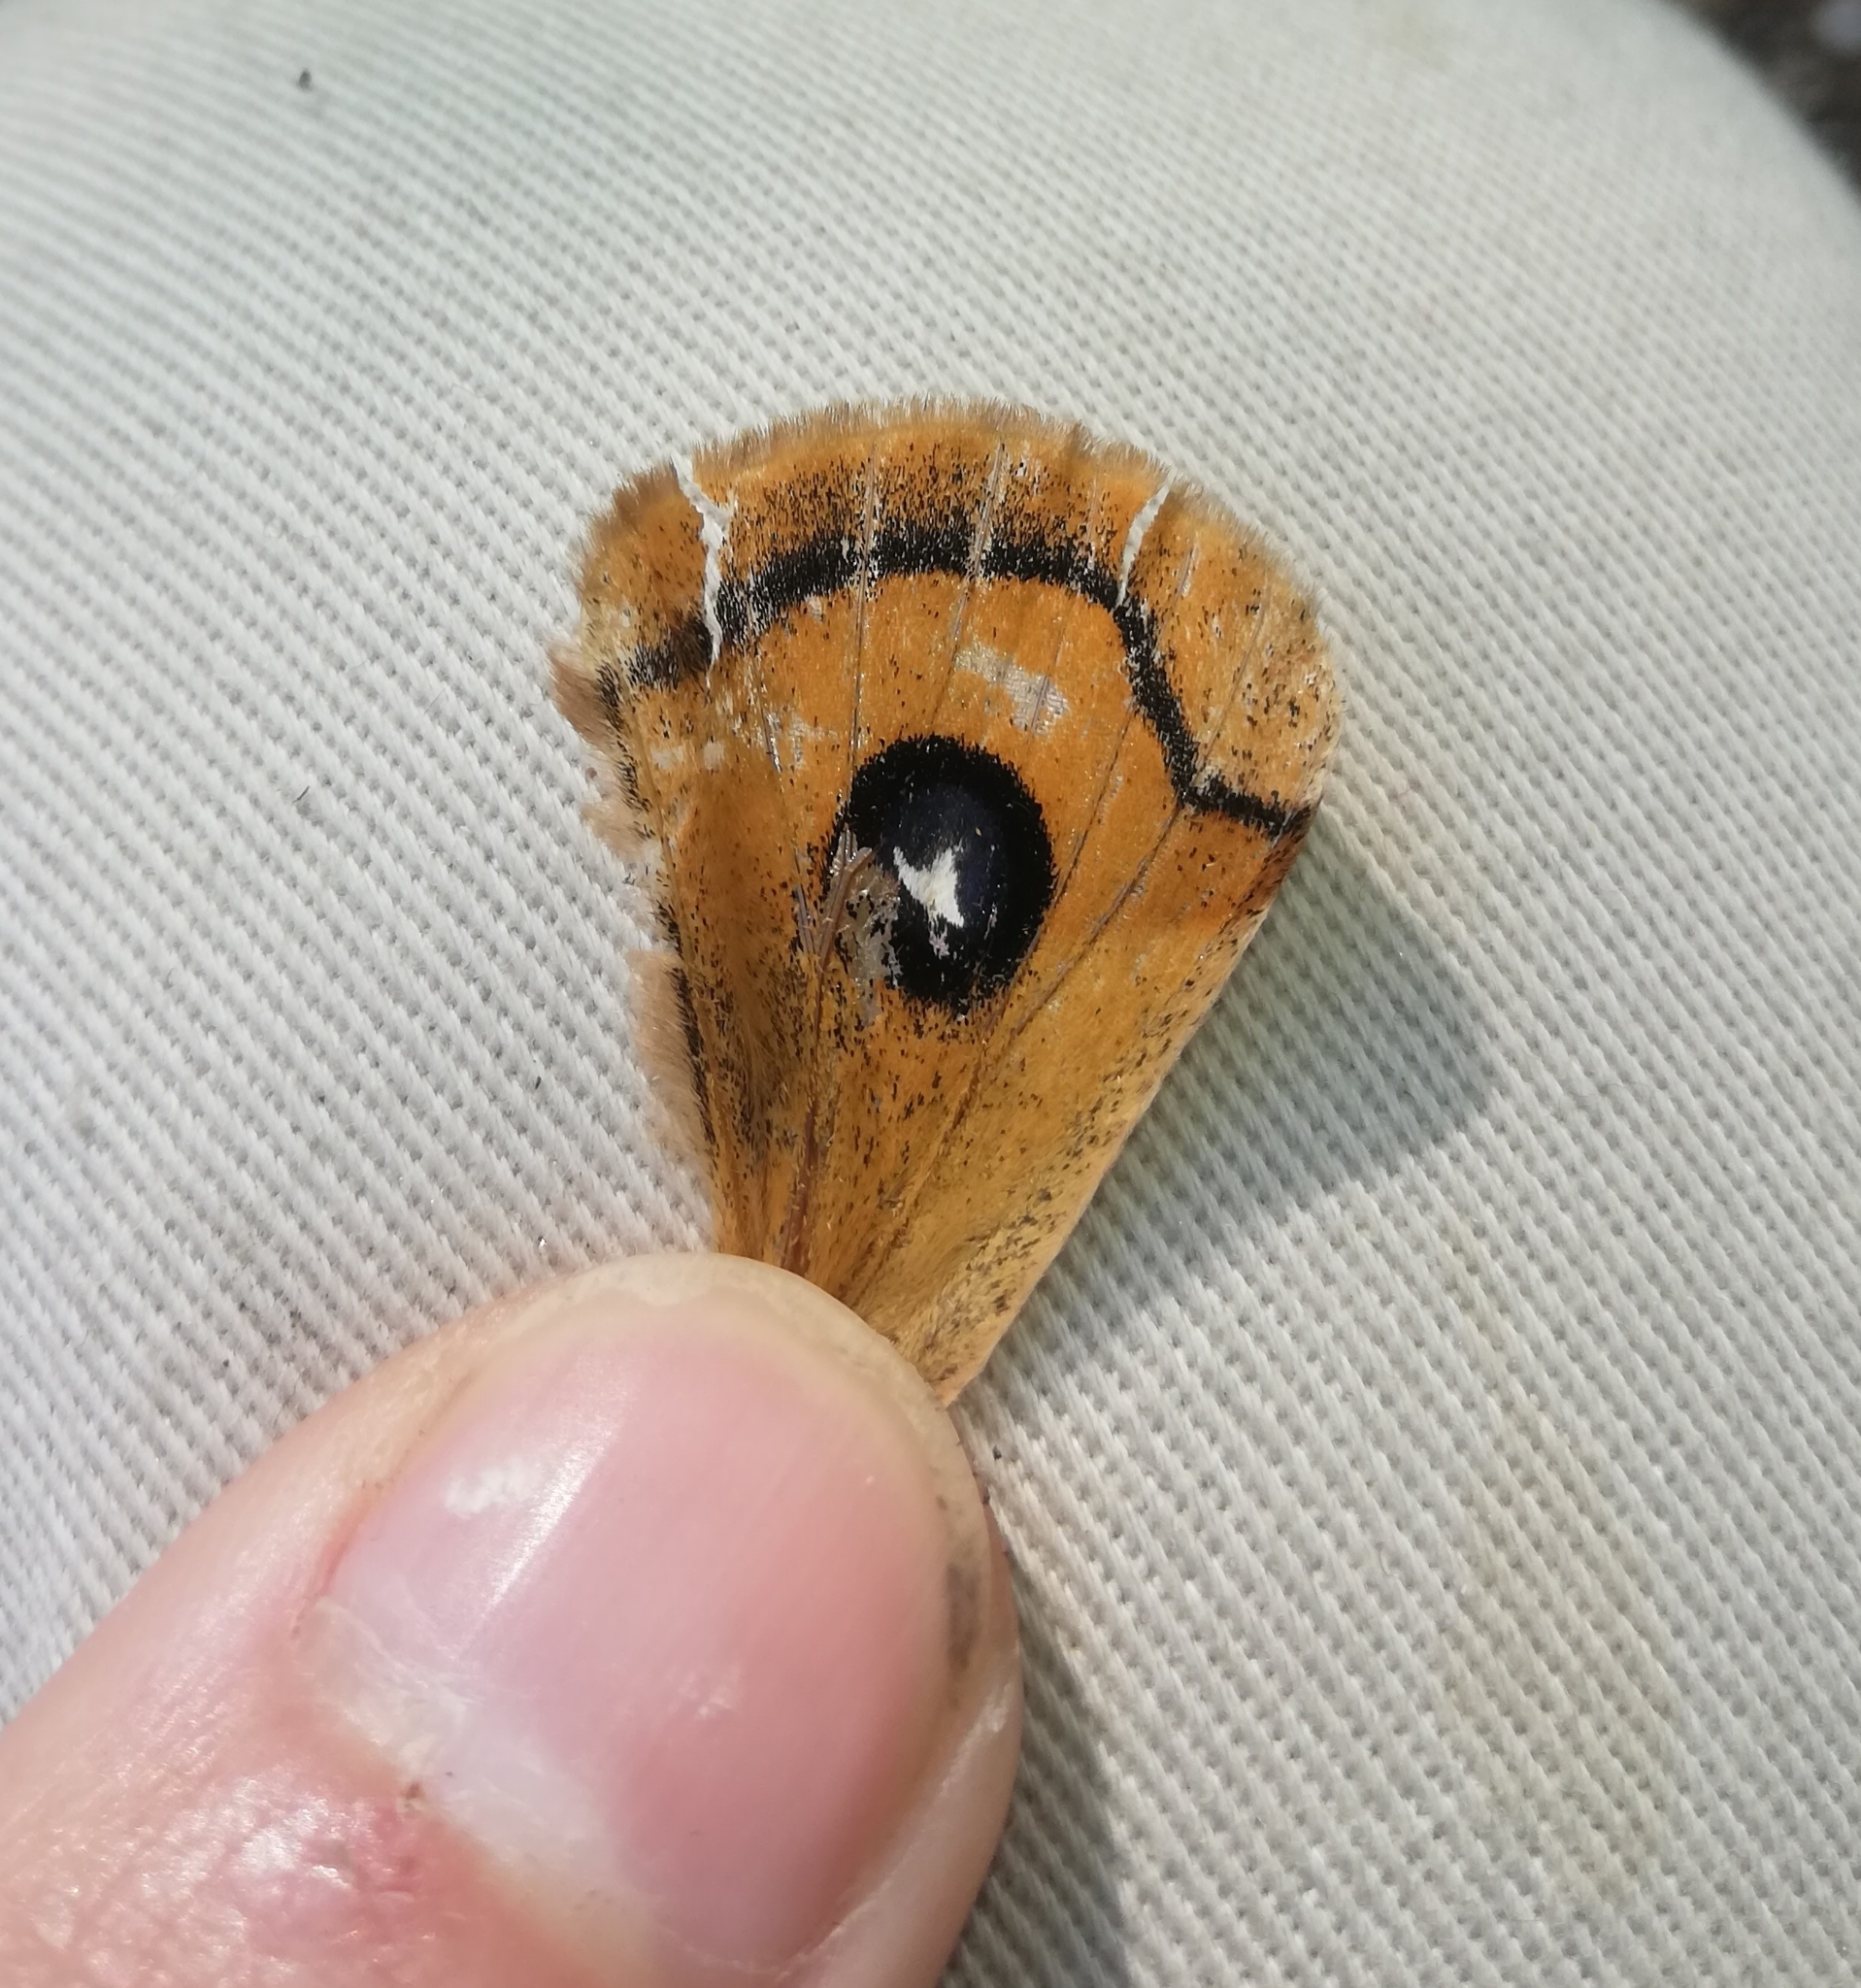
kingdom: Animalia
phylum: Arthropoda
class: Insecta
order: Lepidoptera
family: Saturniidae
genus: Aglia
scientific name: Aglia tau
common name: Tau emperor
